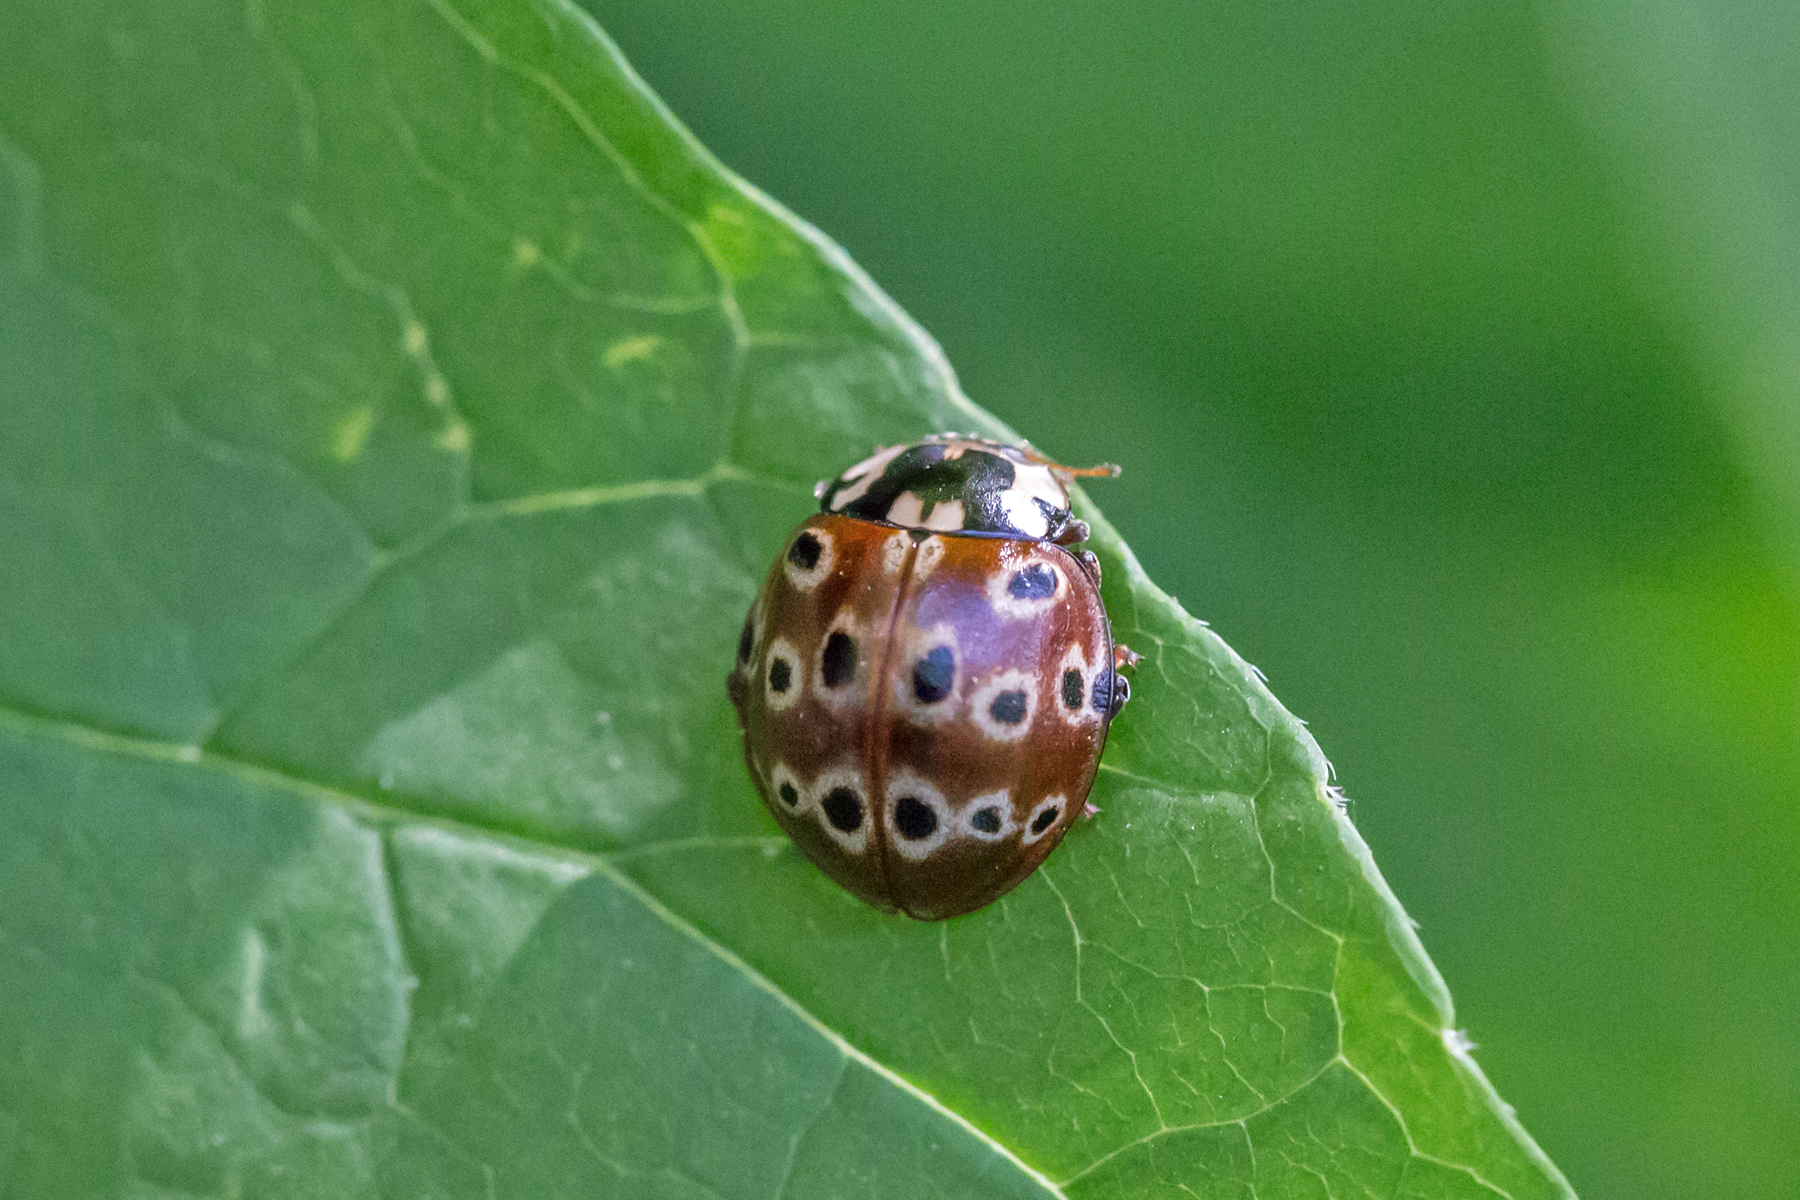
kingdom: Animalia
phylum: Arthropoda
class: Insecta
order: Coleoptera
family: Coccinellidae
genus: Anatis
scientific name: Anatis mali
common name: Eye-spotted lady beetle
